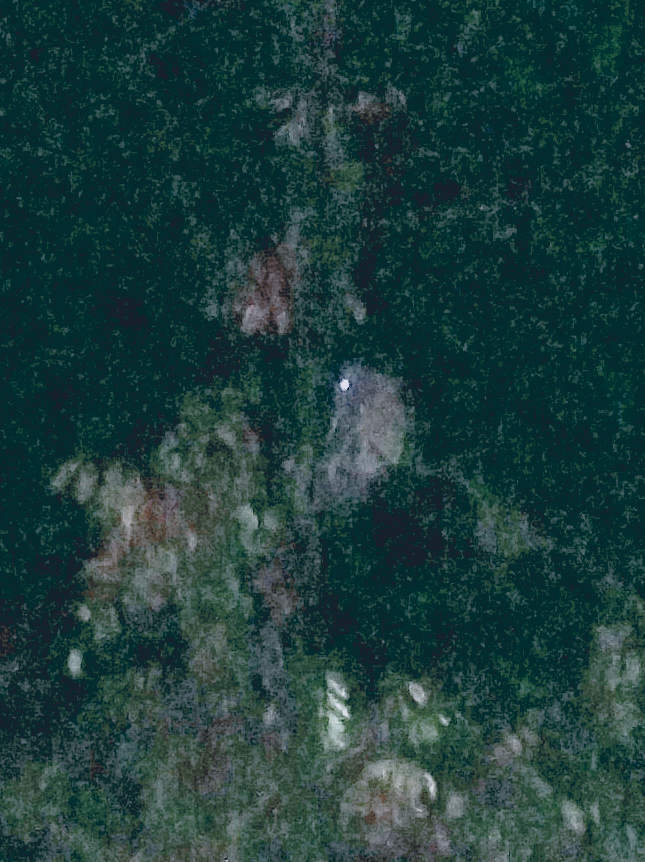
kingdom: Animalia
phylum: Chordata
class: Aves
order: Strigiformes
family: Strigidae
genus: Megascops
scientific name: Megascops choliba
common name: Tropical screech-owl
